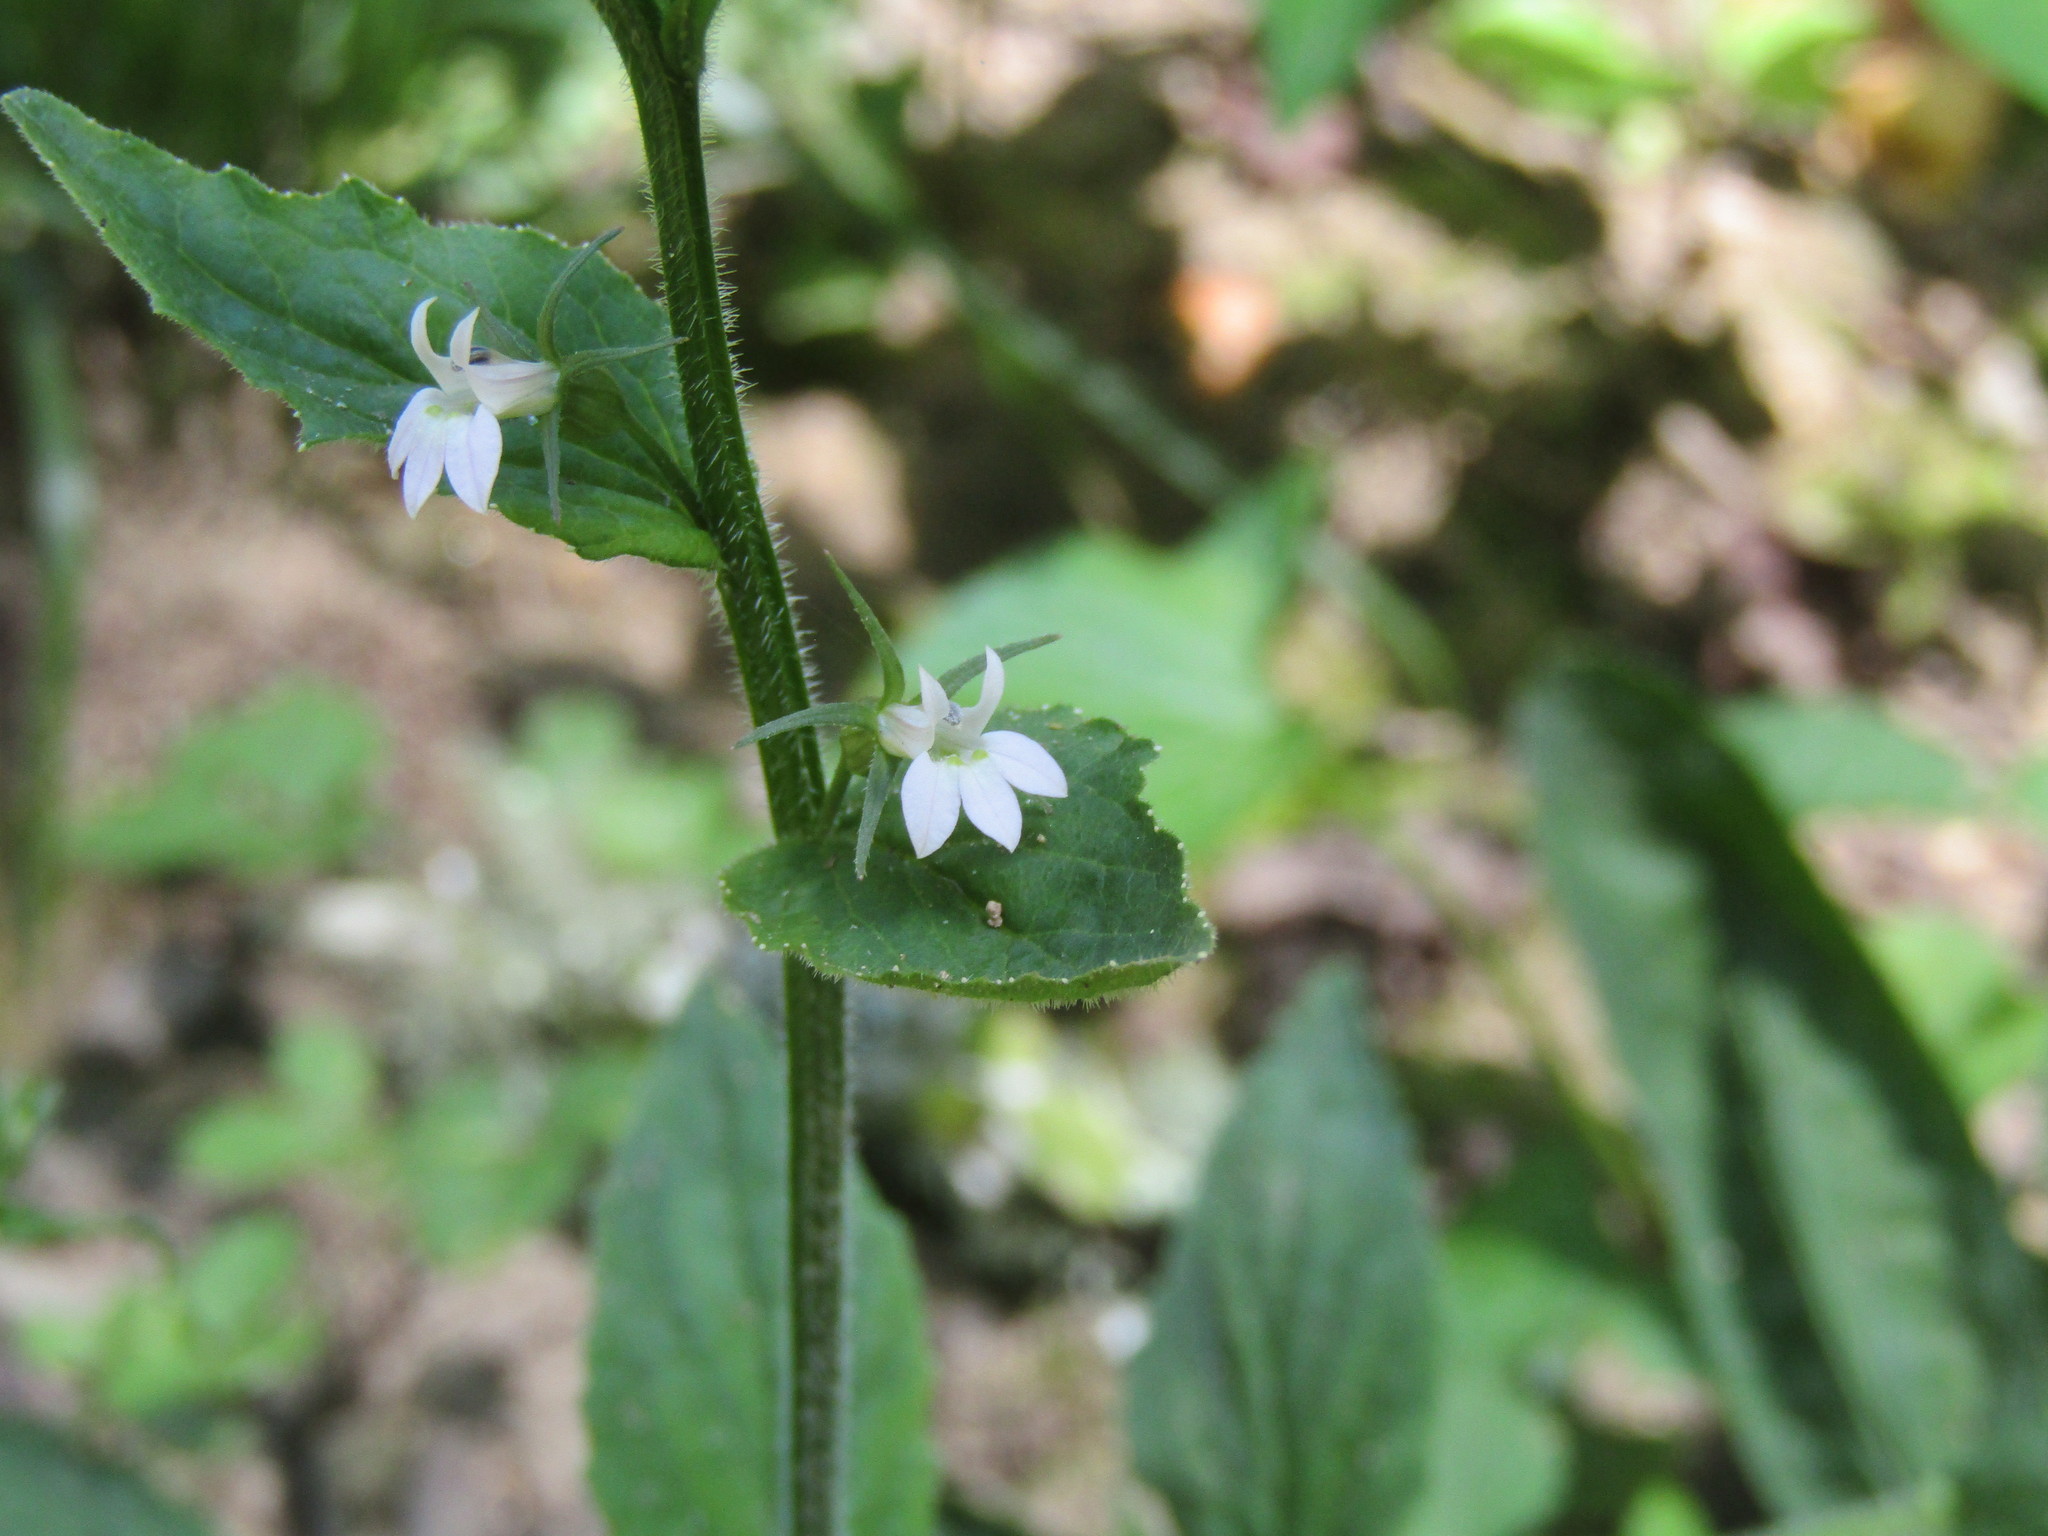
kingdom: Plantae
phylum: Tracheophyta
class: Magnoliopsida
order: Asterales
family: Campanulaceae
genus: Lobelia
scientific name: Lobelia inflata
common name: Indian tobacco
